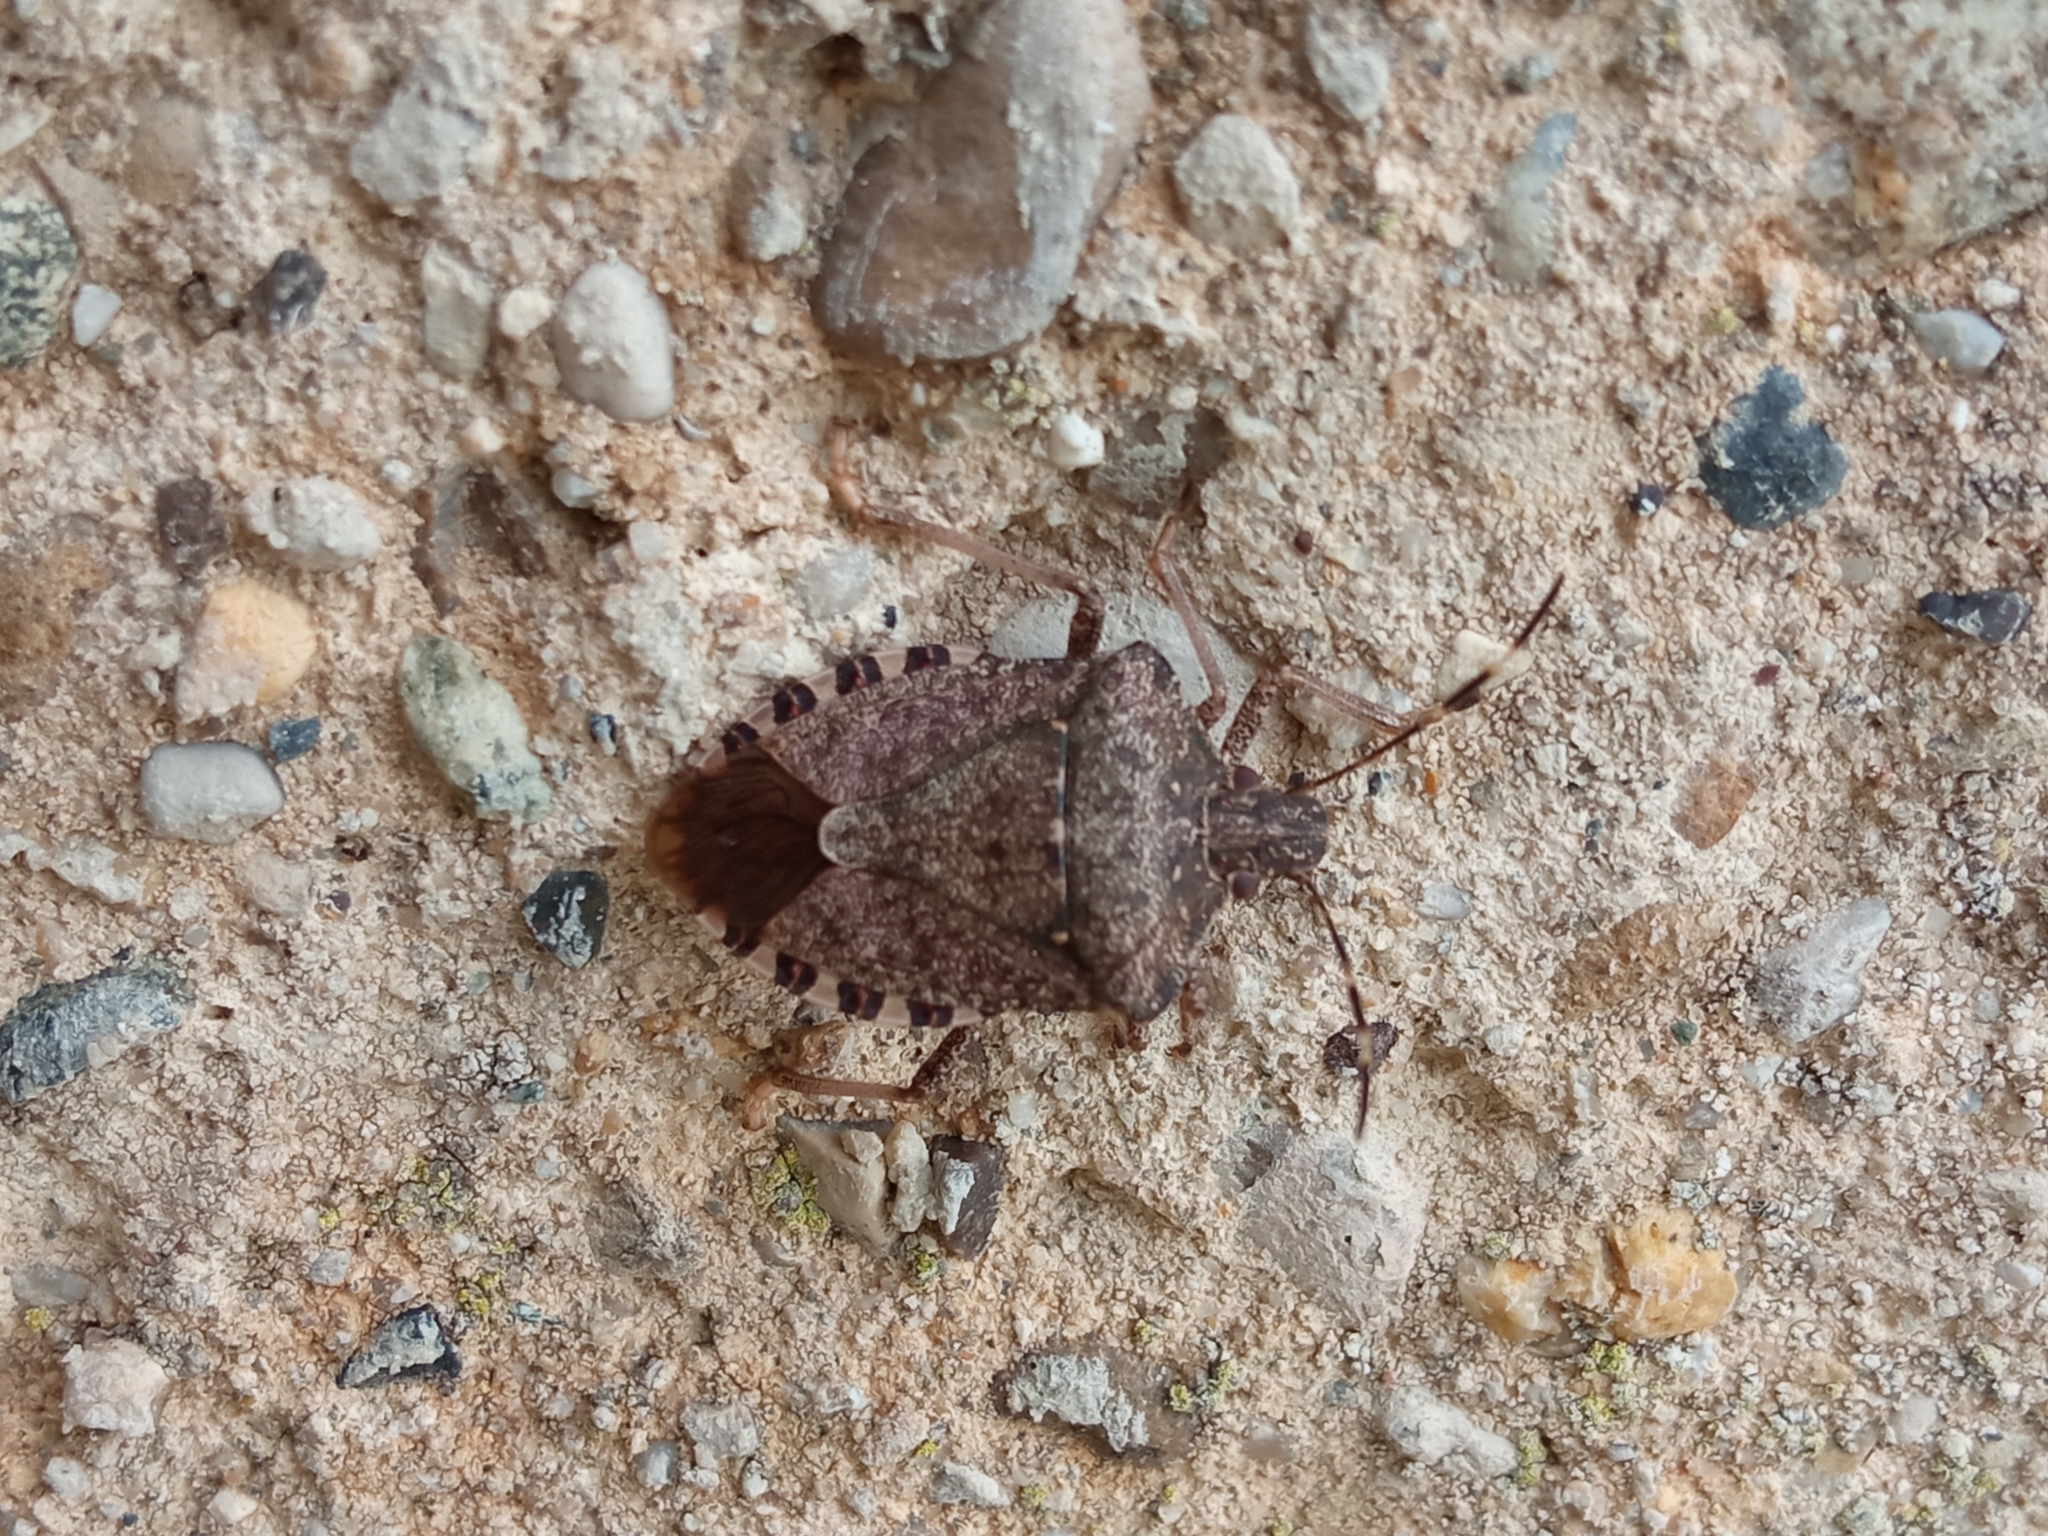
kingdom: Animalia
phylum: Arthropoda
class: Insecta
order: Hemiptera
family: Pentatomidae
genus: Halyomorpha
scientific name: Halyomorpha halys
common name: Brown marmorated stink bug
